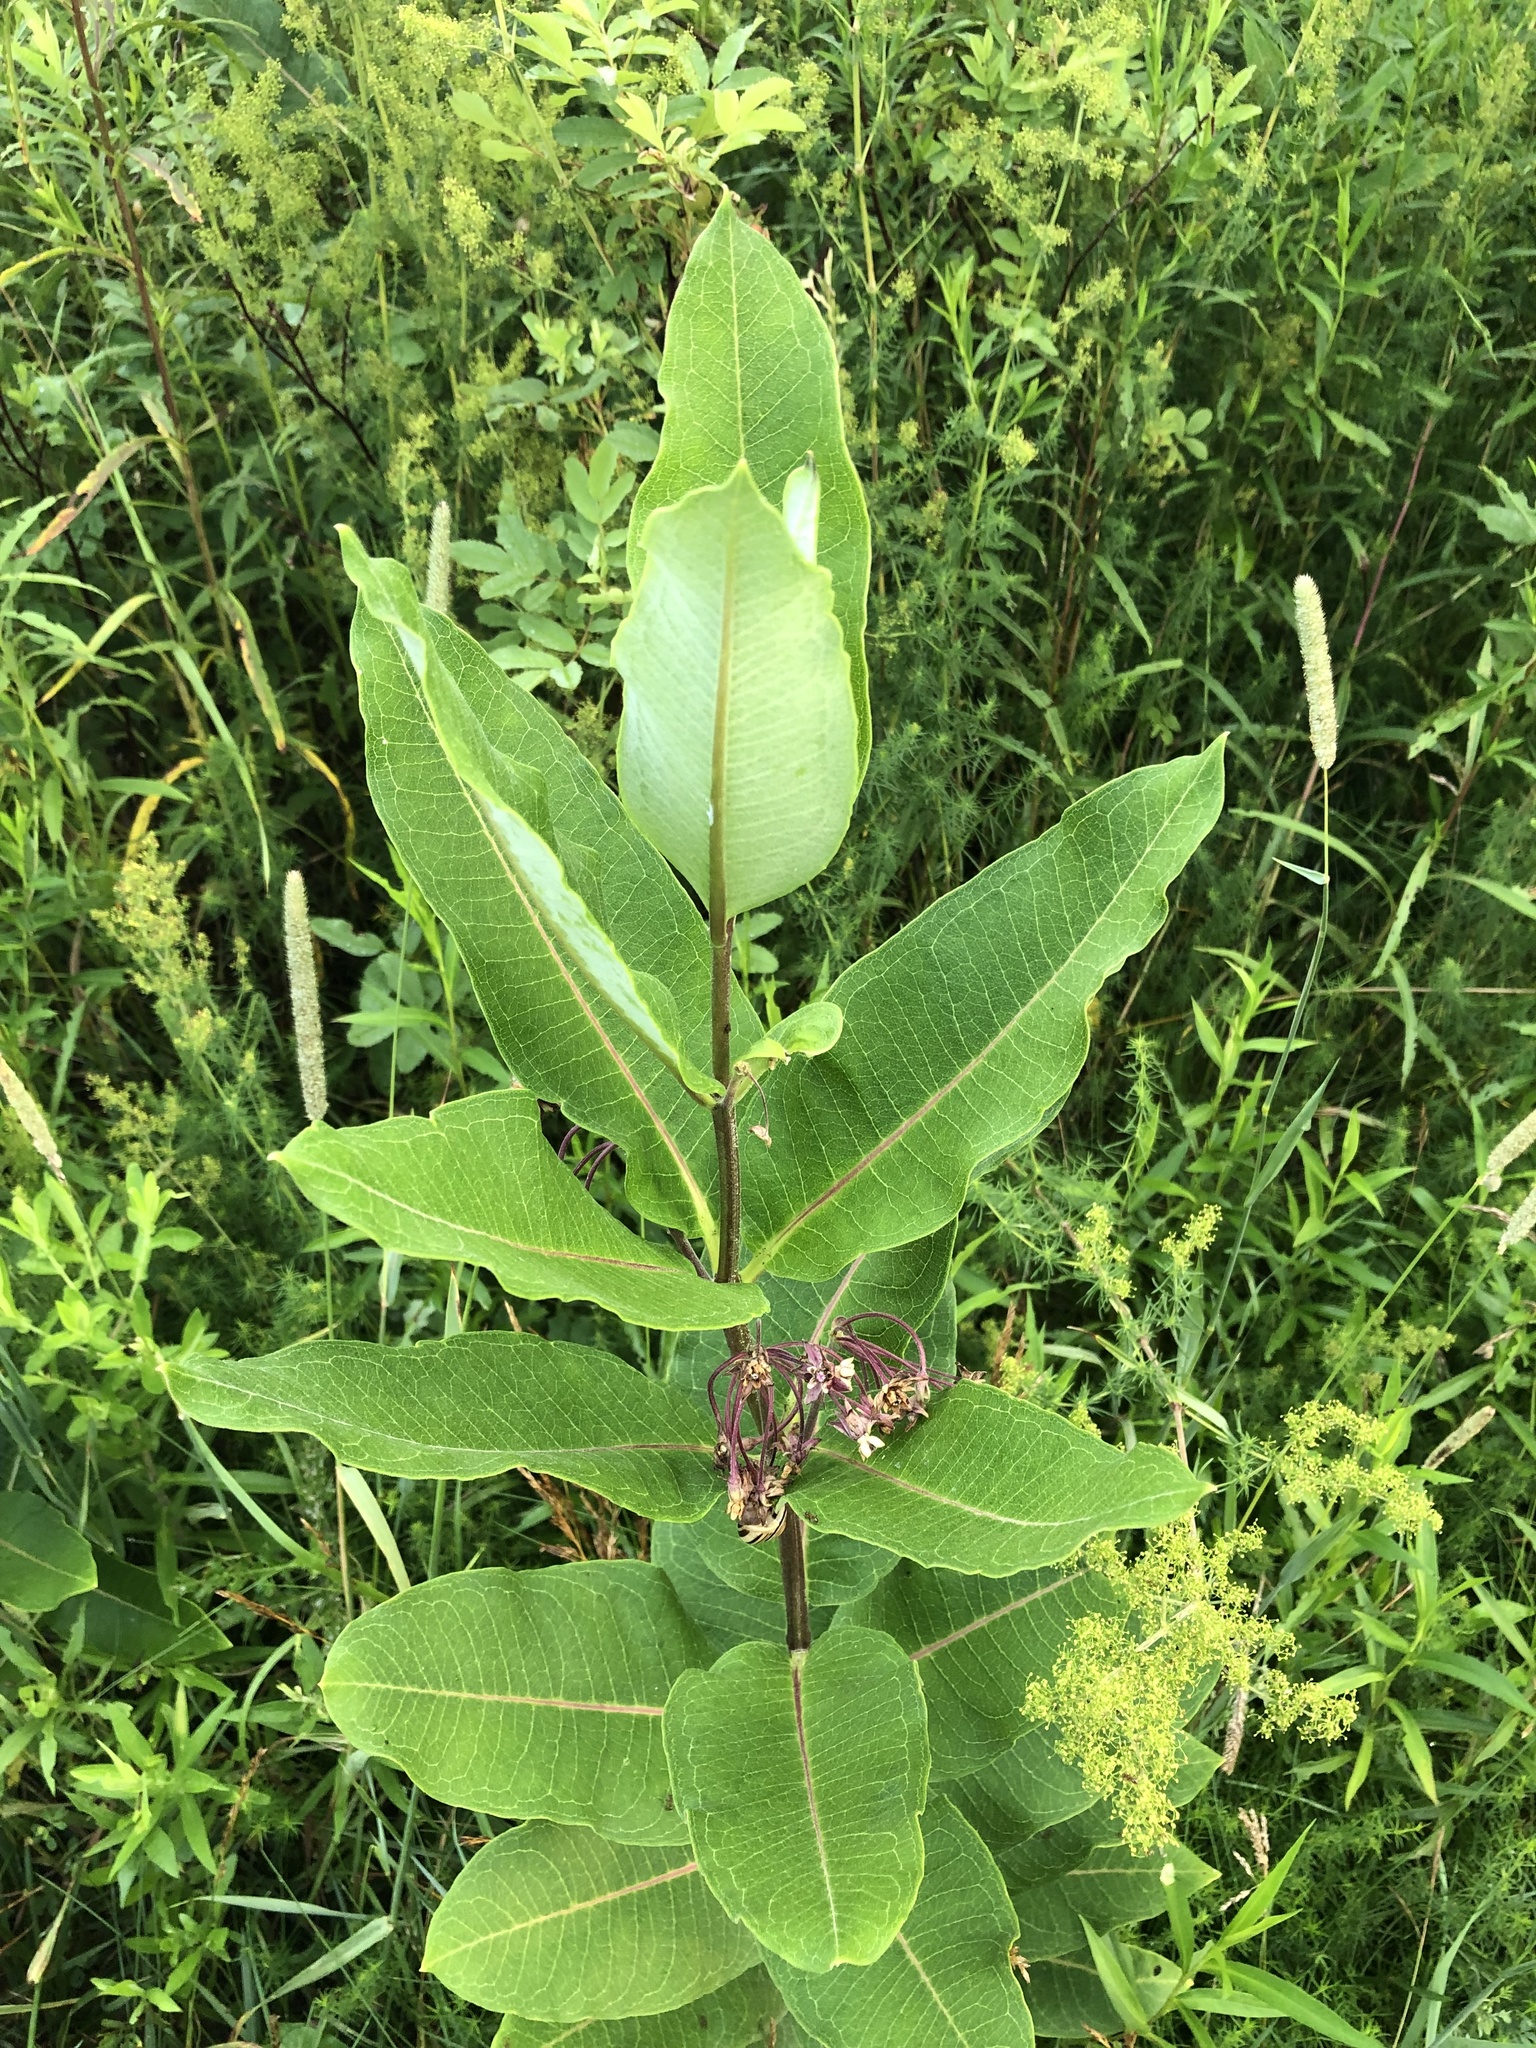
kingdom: Plantae
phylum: Tracheophyta
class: Magnoliopsida
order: Gentianales
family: Apocynaceae
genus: Asclepias
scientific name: Asclepias syriaca
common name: Common milkweed
